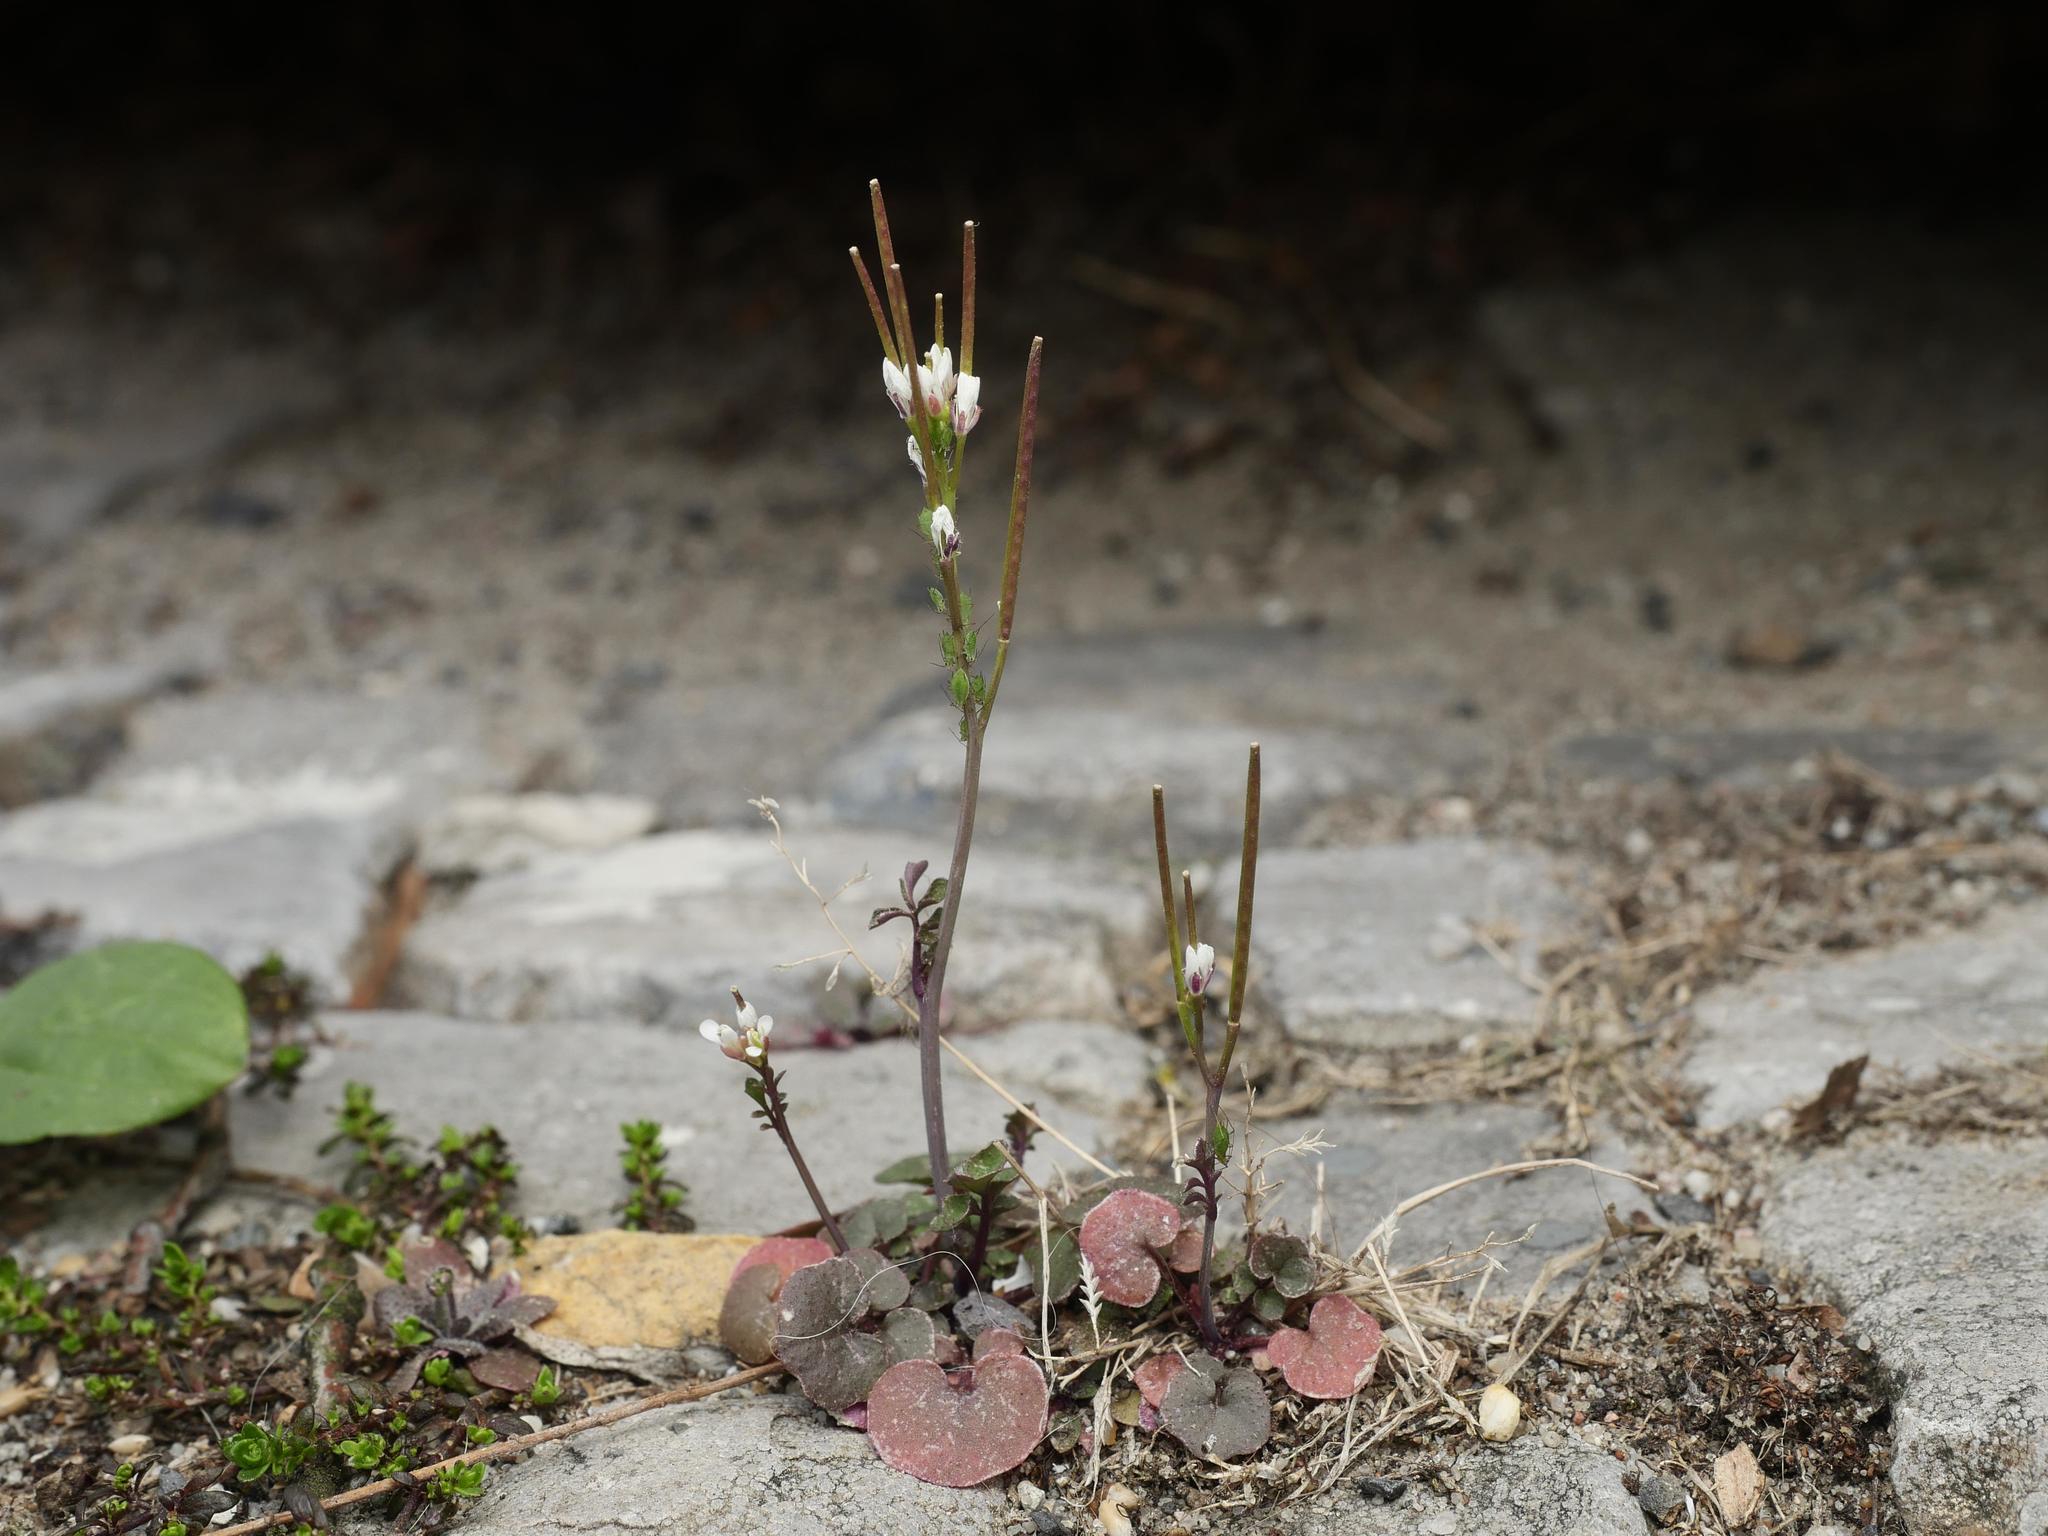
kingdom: Plantae
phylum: Tracheophyta
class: Magnoliopsida
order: Brassicales
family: Brassicaceae
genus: Cardamine
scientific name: Cardamine hirsuta
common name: Hairy bittercress
